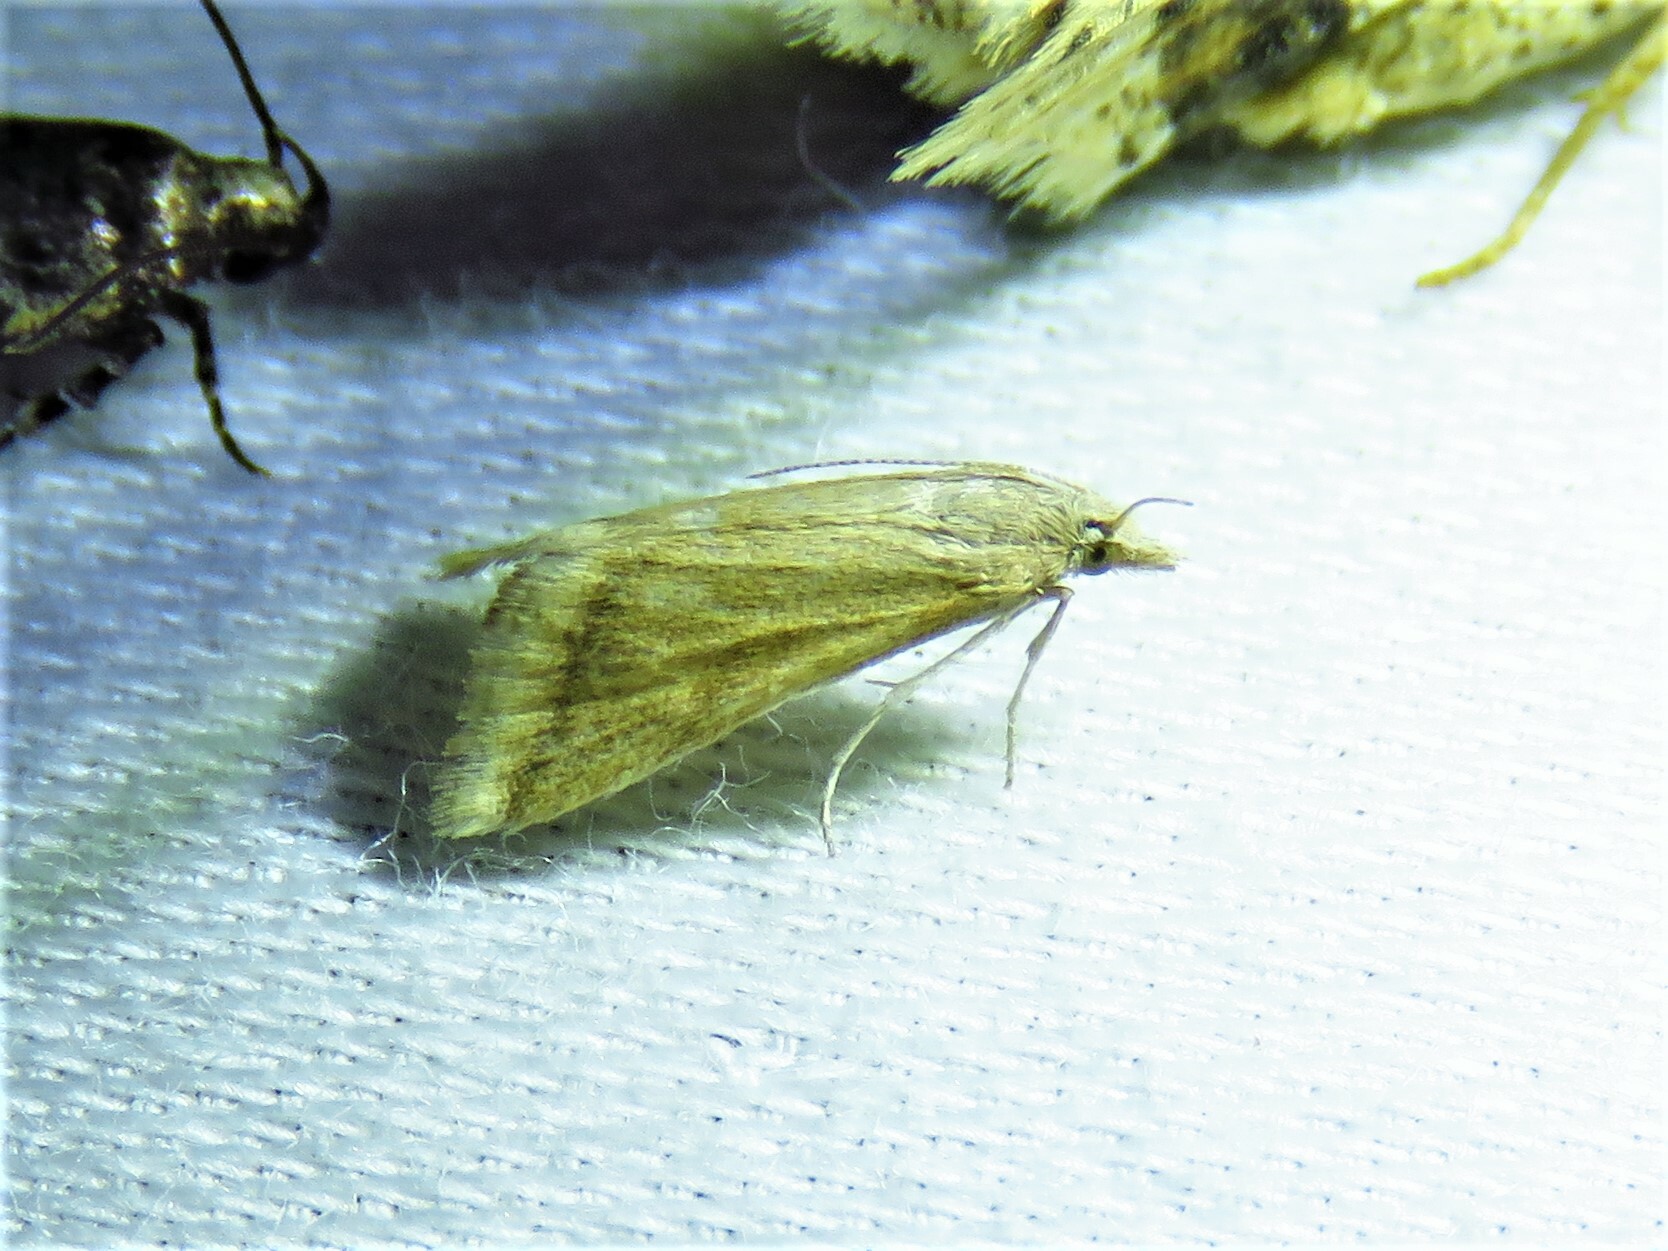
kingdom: Animalia
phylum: Arthropoda
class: Insecta
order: Lepidoptera
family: Crambidae
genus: Microtheoris
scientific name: Microtheoris vibicalis
